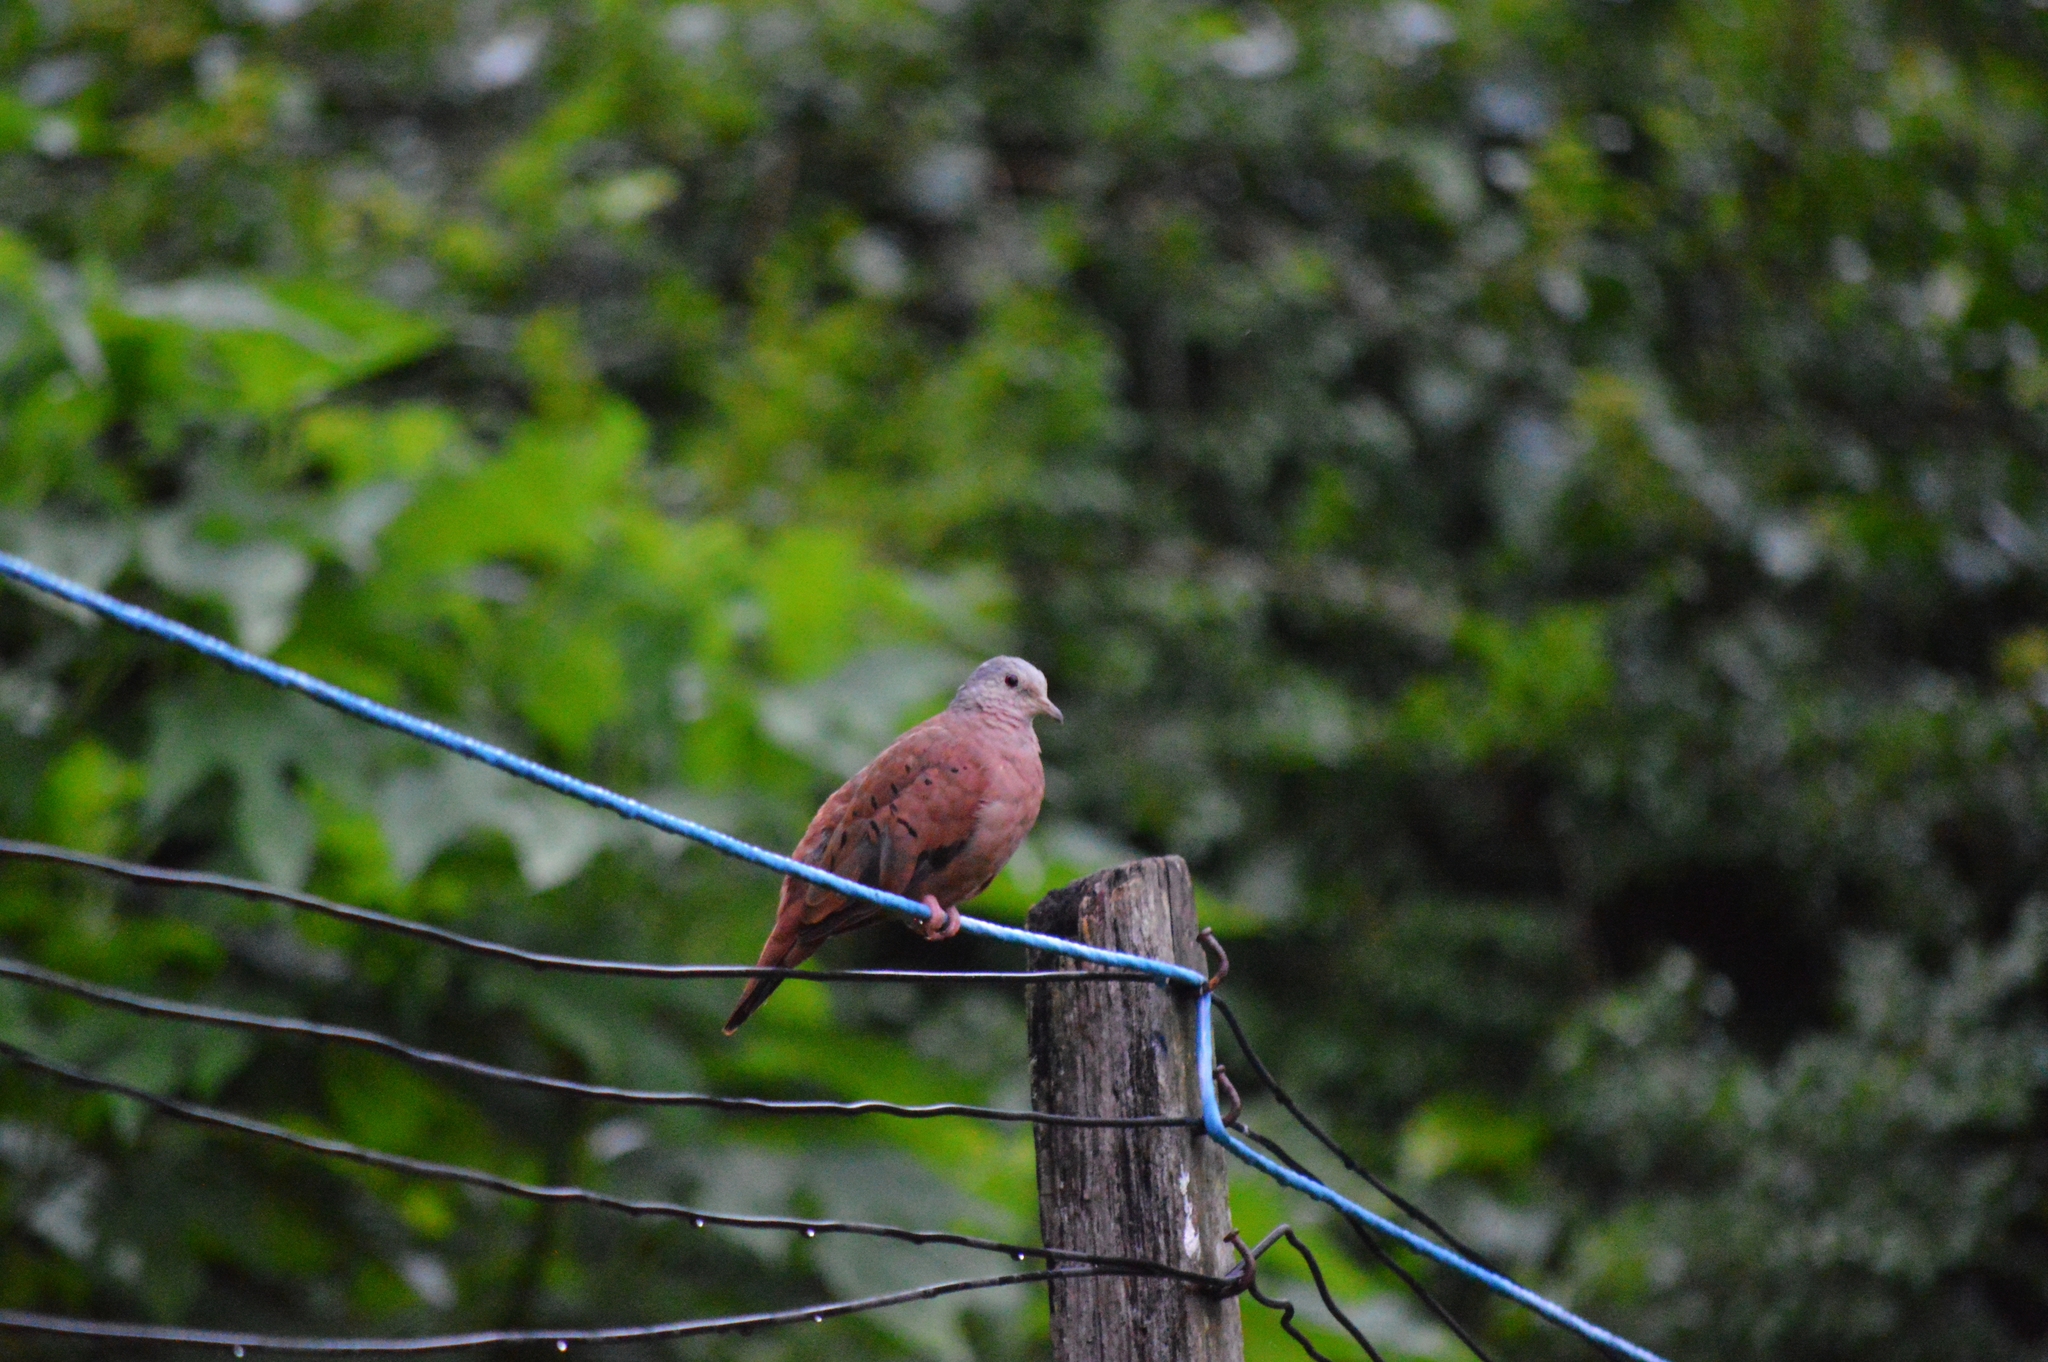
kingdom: Animalia
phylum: Chordata
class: Aves
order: Columbiformes
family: Columbidae
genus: Columbina
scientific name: Columbina talpacoti
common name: Ruddy ground dove
